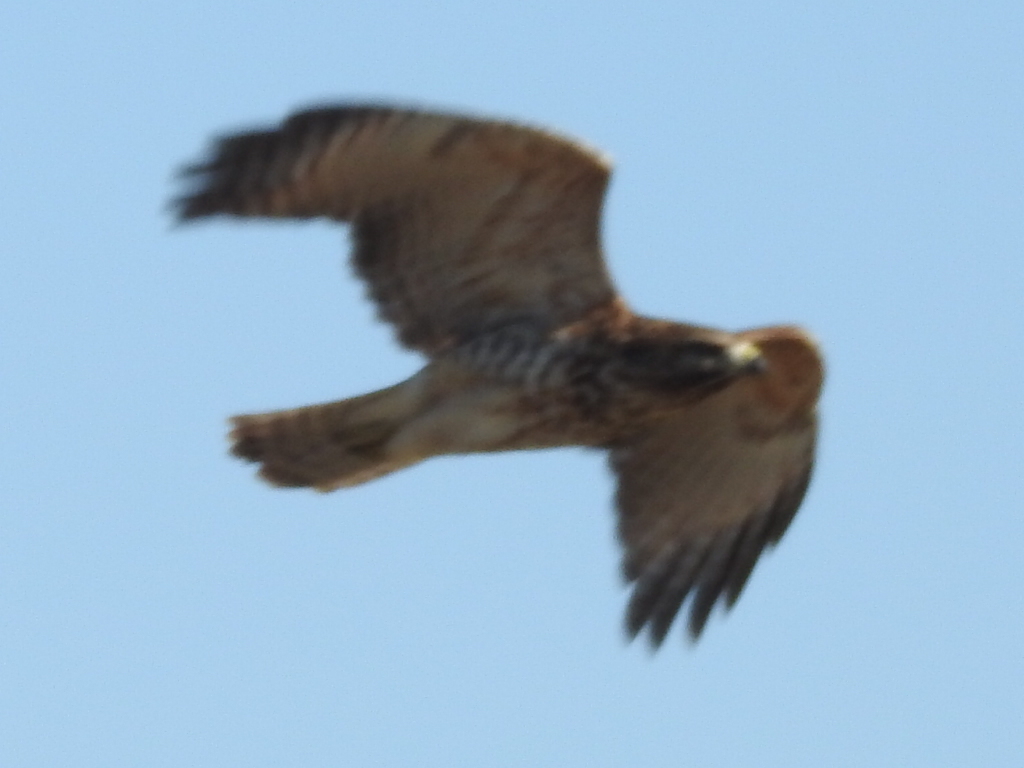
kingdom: Animalia
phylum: Chordata
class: Aves
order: Accipitriformes
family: Accipitridae
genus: Buteo
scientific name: Buteo jamaicensis
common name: Red-tailed hawk
